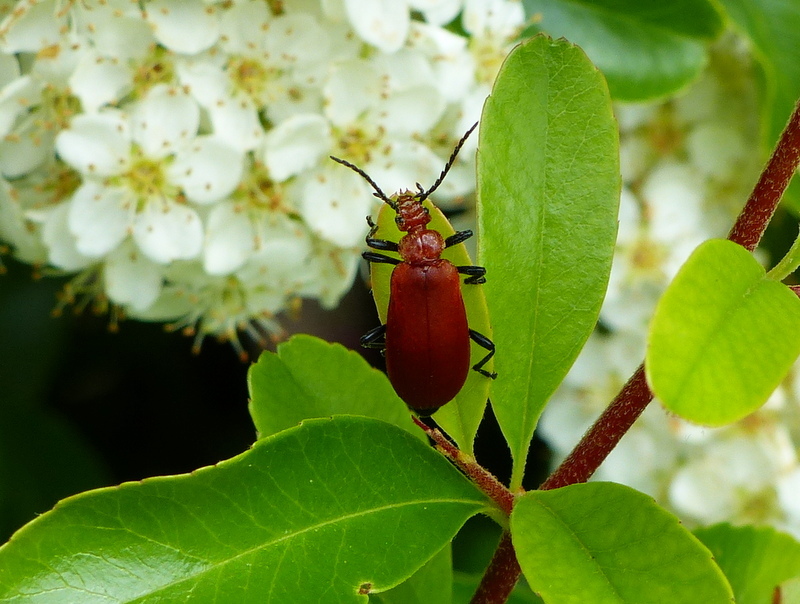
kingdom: Animalia
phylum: Arthropoda
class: Insecta
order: Coleoptera
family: Pyrochroidae
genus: Pyrochroa
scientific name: Pyrochroa serraticornis
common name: Red-headed cardinal beetle
